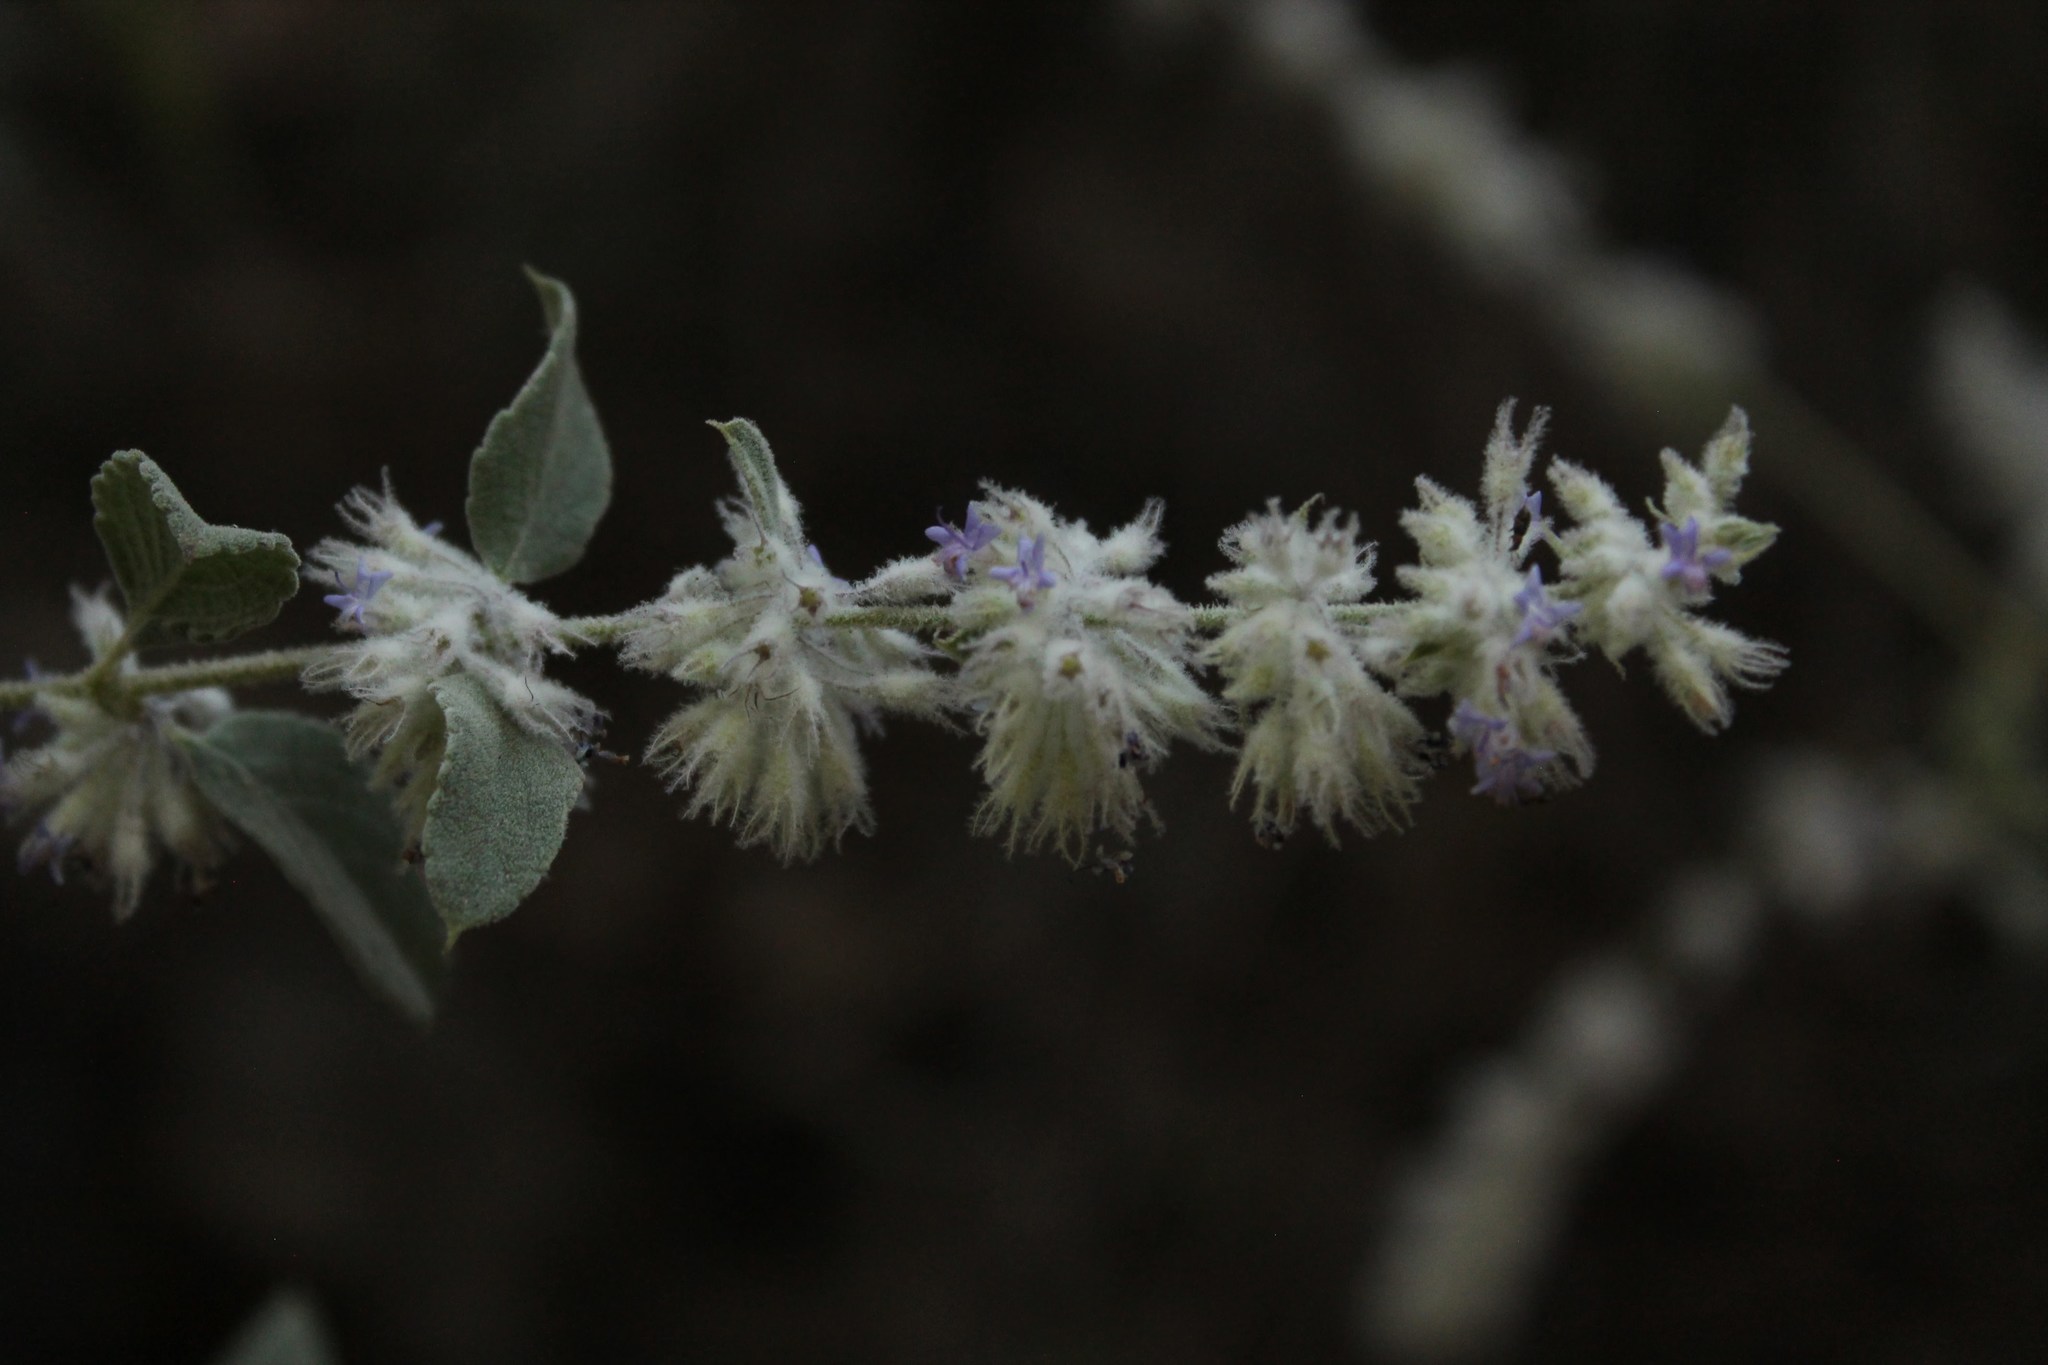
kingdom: Plantae
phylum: Tracheophyta
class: Magnoliopsida
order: Lamiales
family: Lamiaceae
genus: Condea
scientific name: Condea albida
